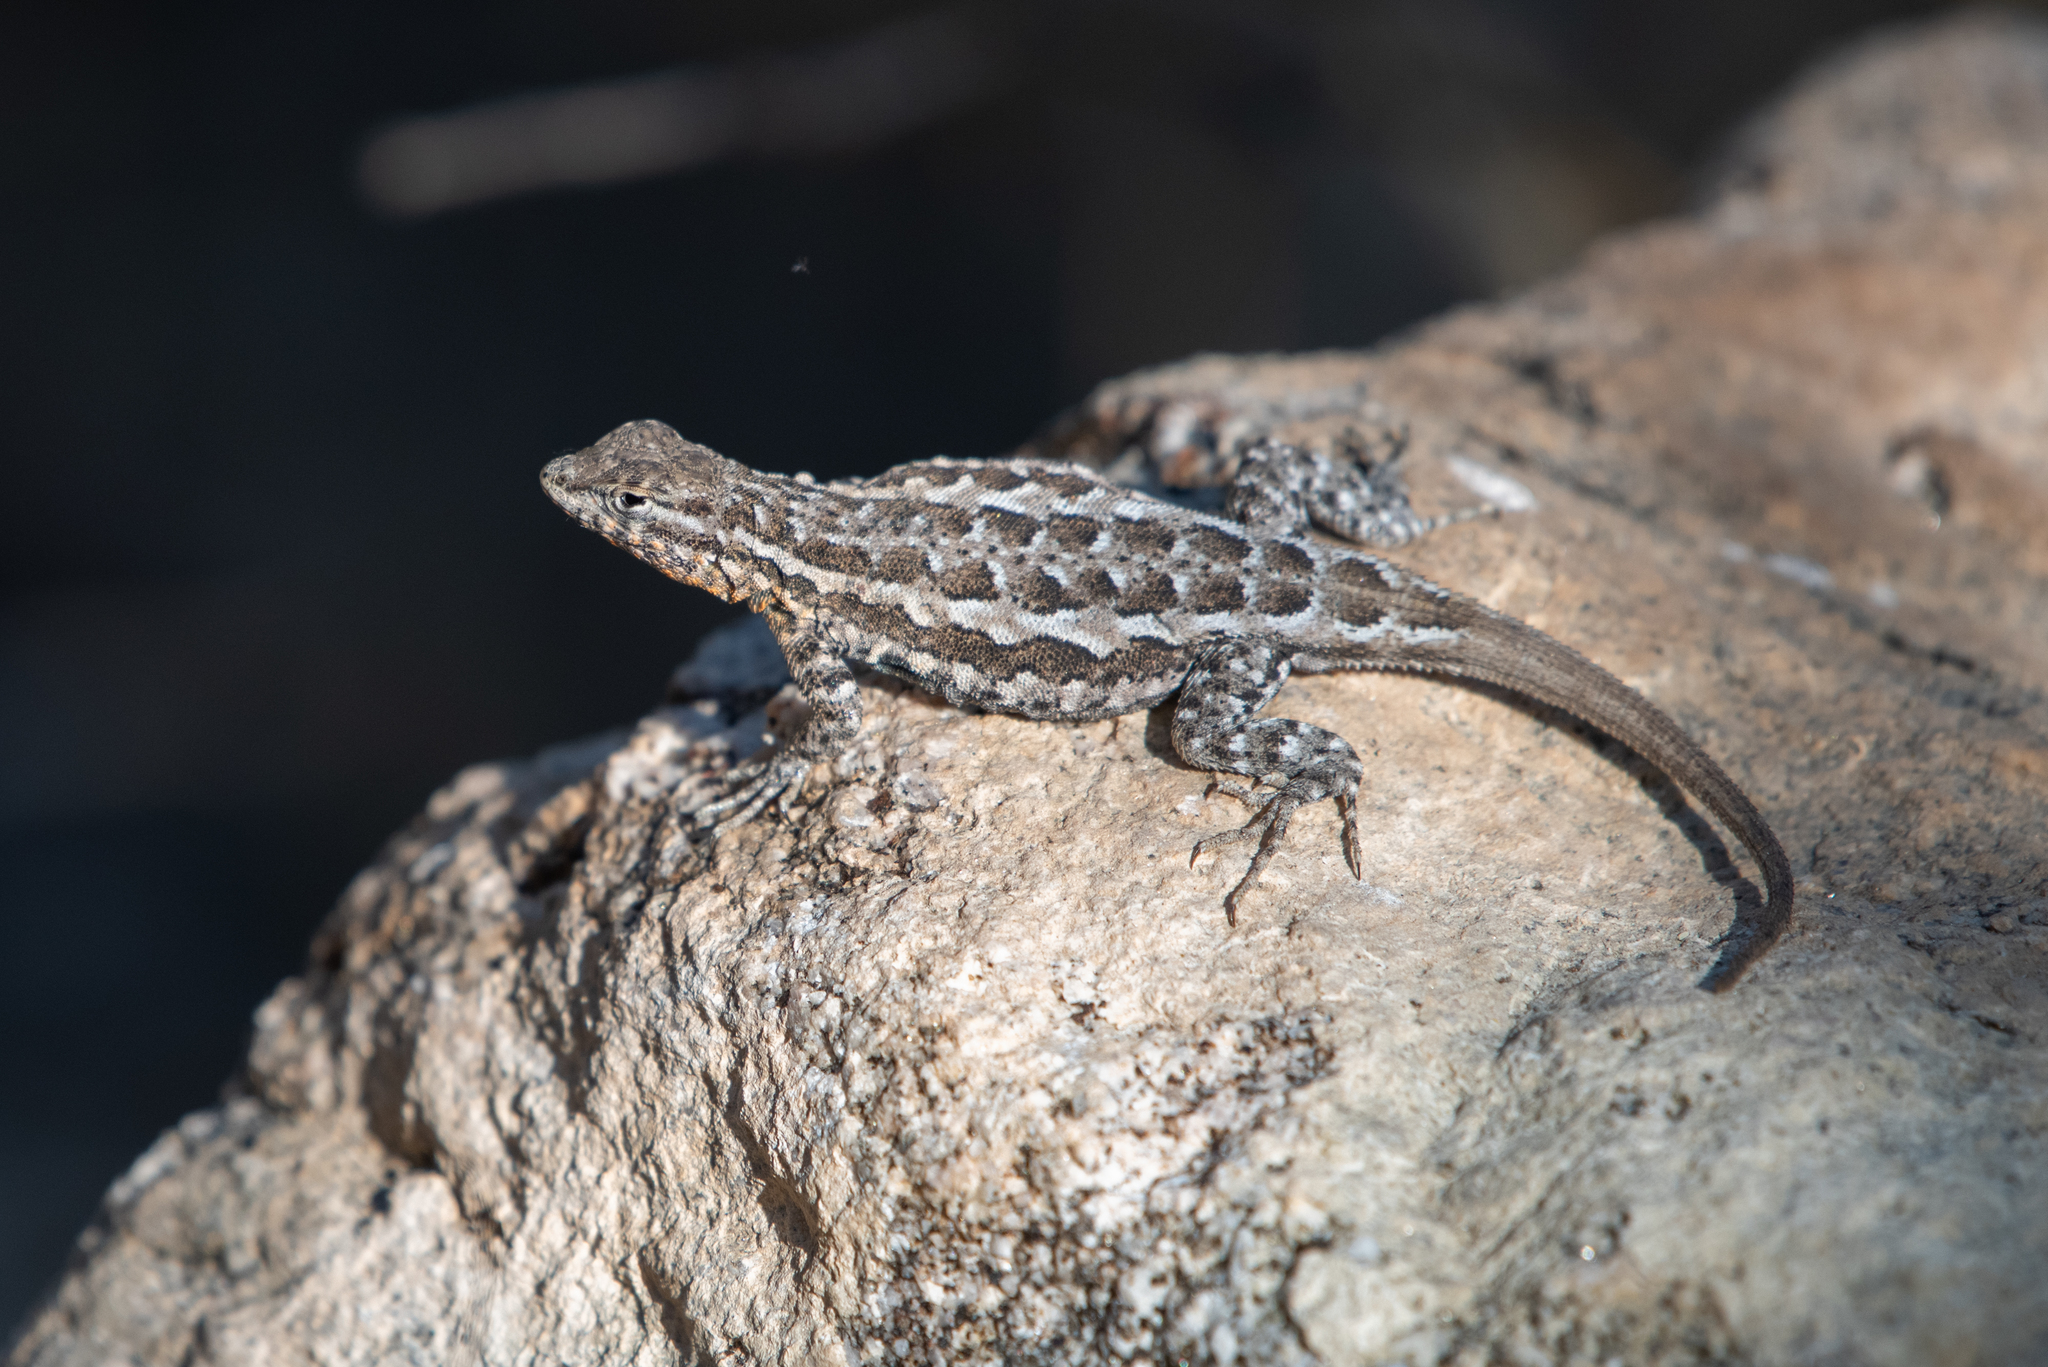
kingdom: Animalia
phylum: Chordata
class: Squamata
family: Phrynosomatidae
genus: Uta
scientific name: Uta stansburiana
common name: Side-blotched lizard
